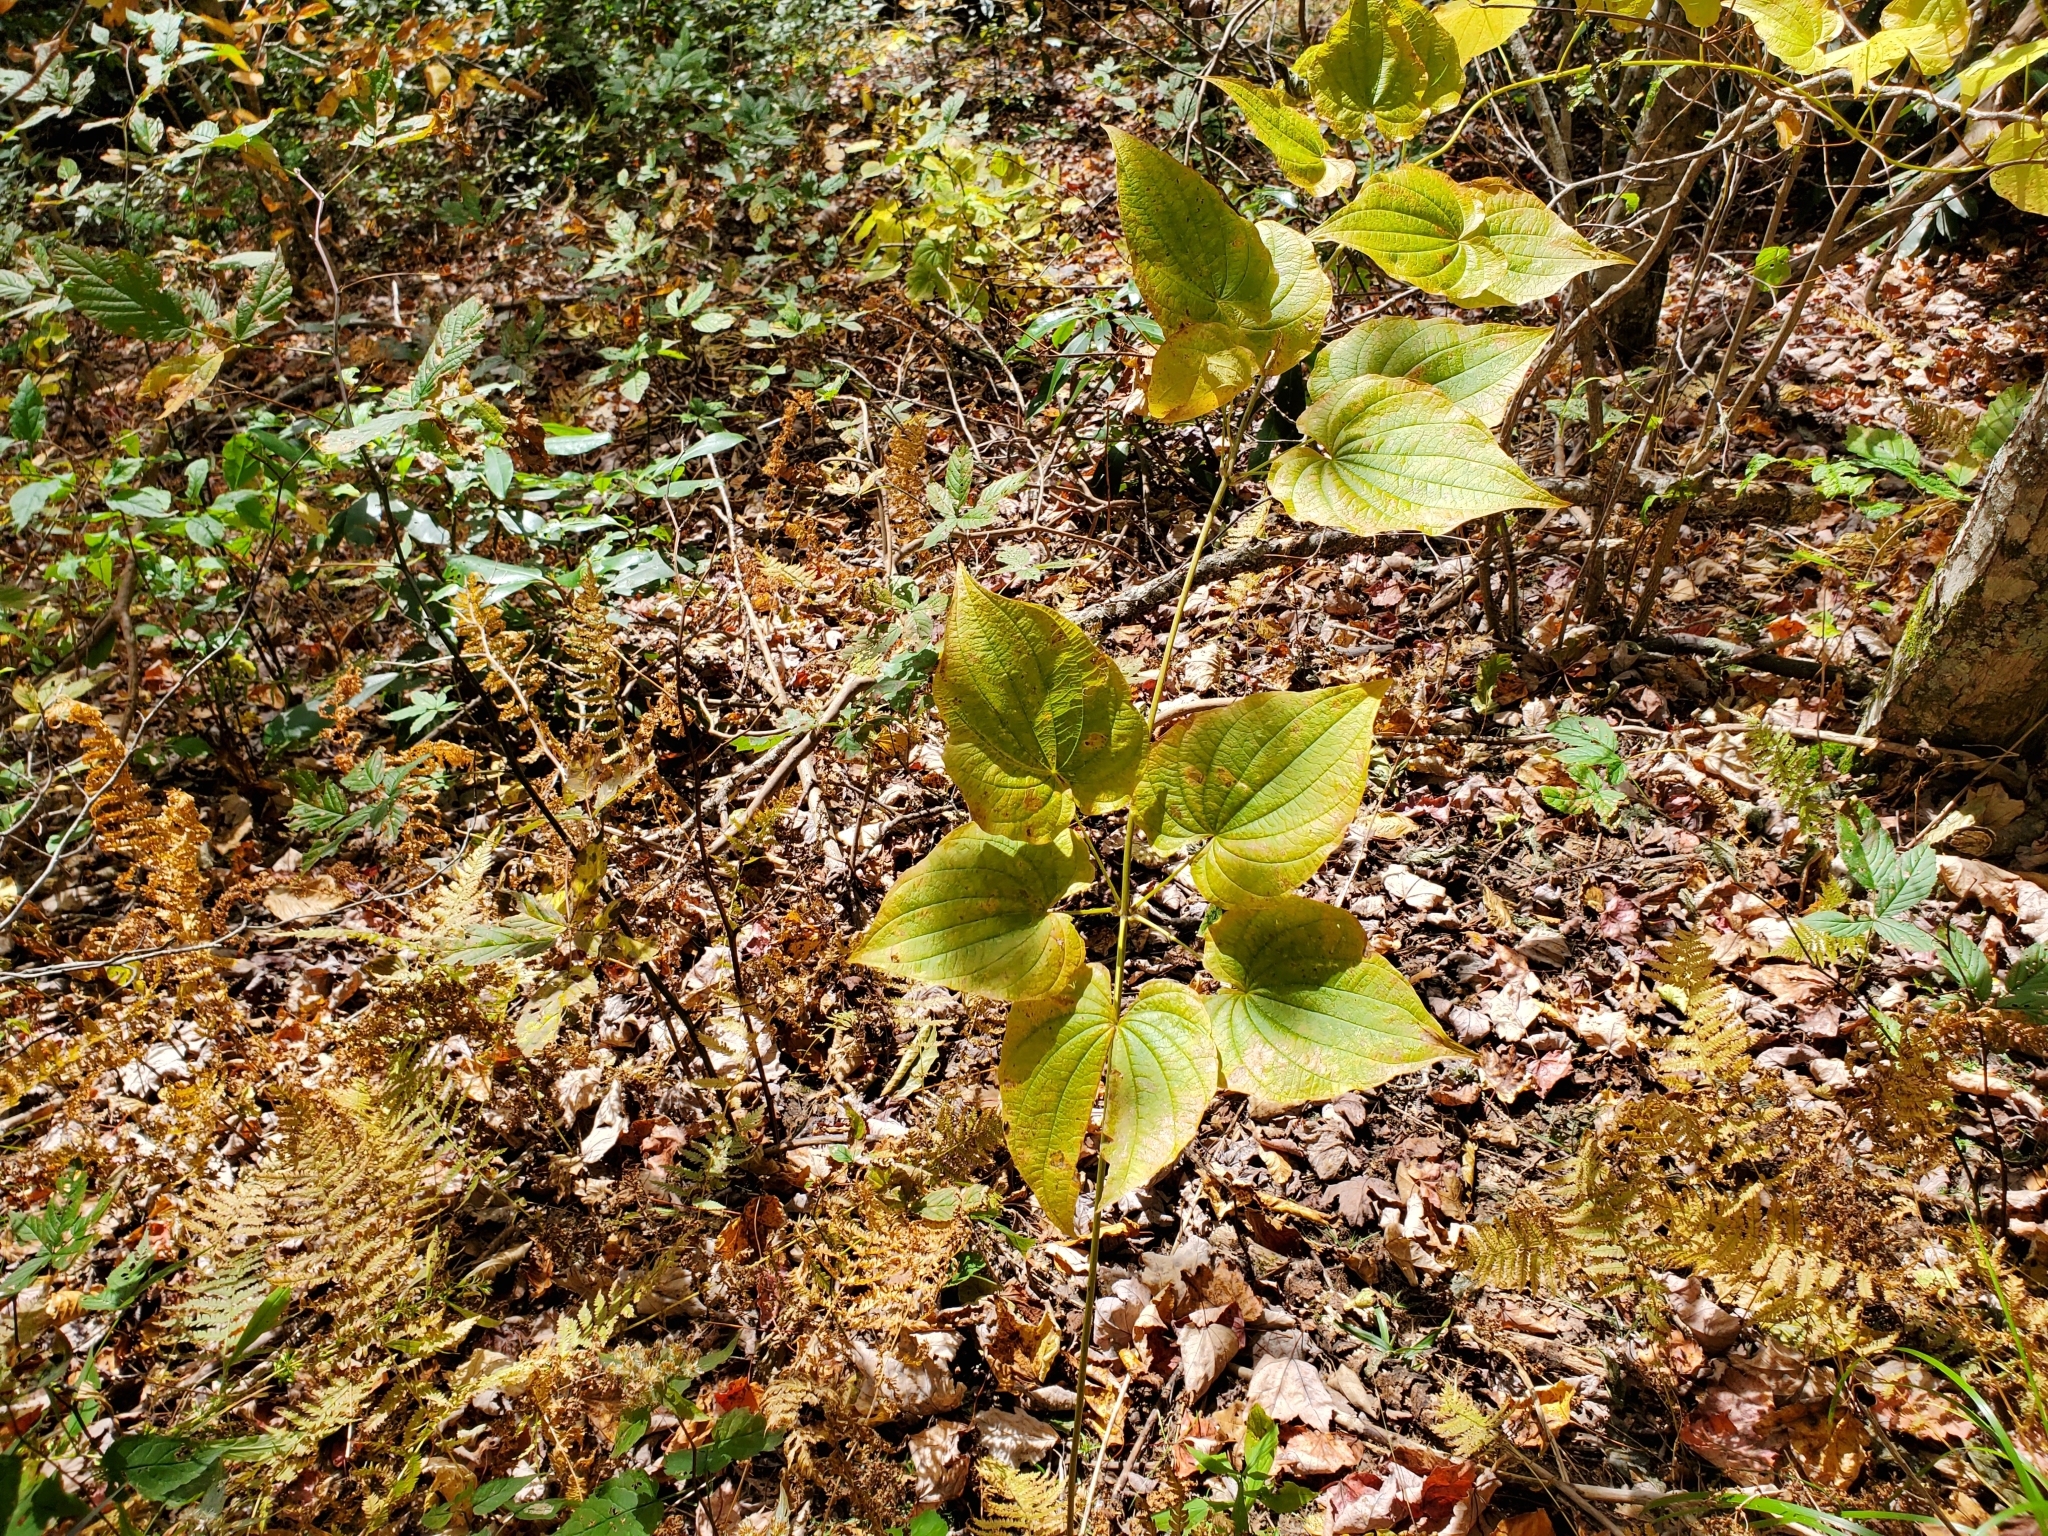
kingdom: Plantae
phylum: Tracheophyta
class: Liliopsida
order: Dioscoreales
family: Dioscoreaceae
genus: Dioscorea
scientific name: Dioscorea villosa
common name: Wild yam
